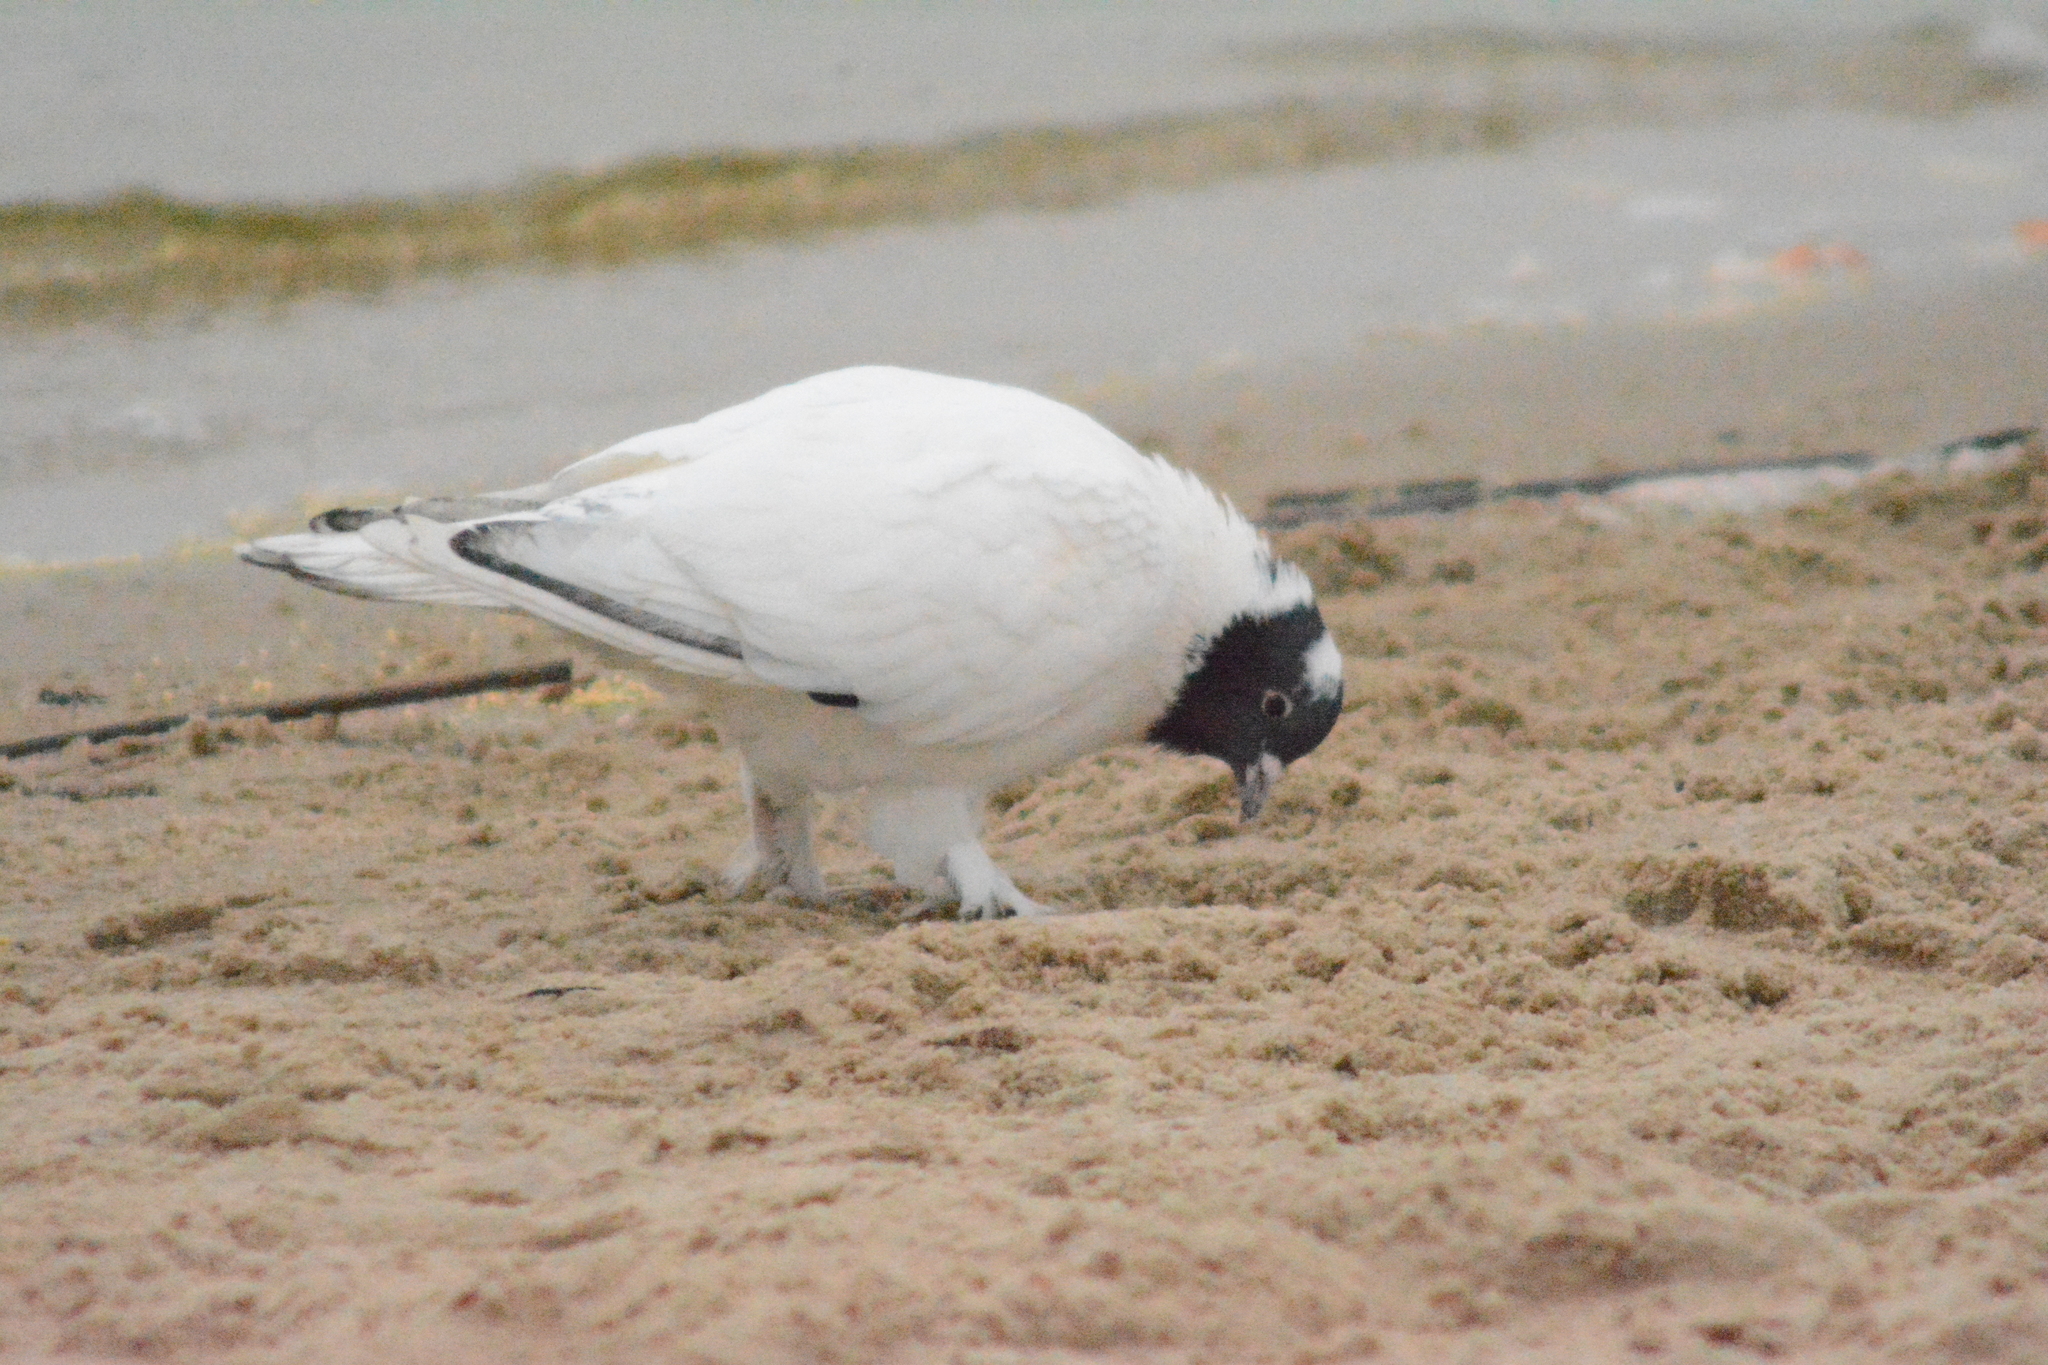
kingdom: Animalia
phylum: Chordata
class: Aves
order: Columbiformes
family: Columbidae
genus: Columba
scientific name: Columba livia
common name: Rock pigeon
